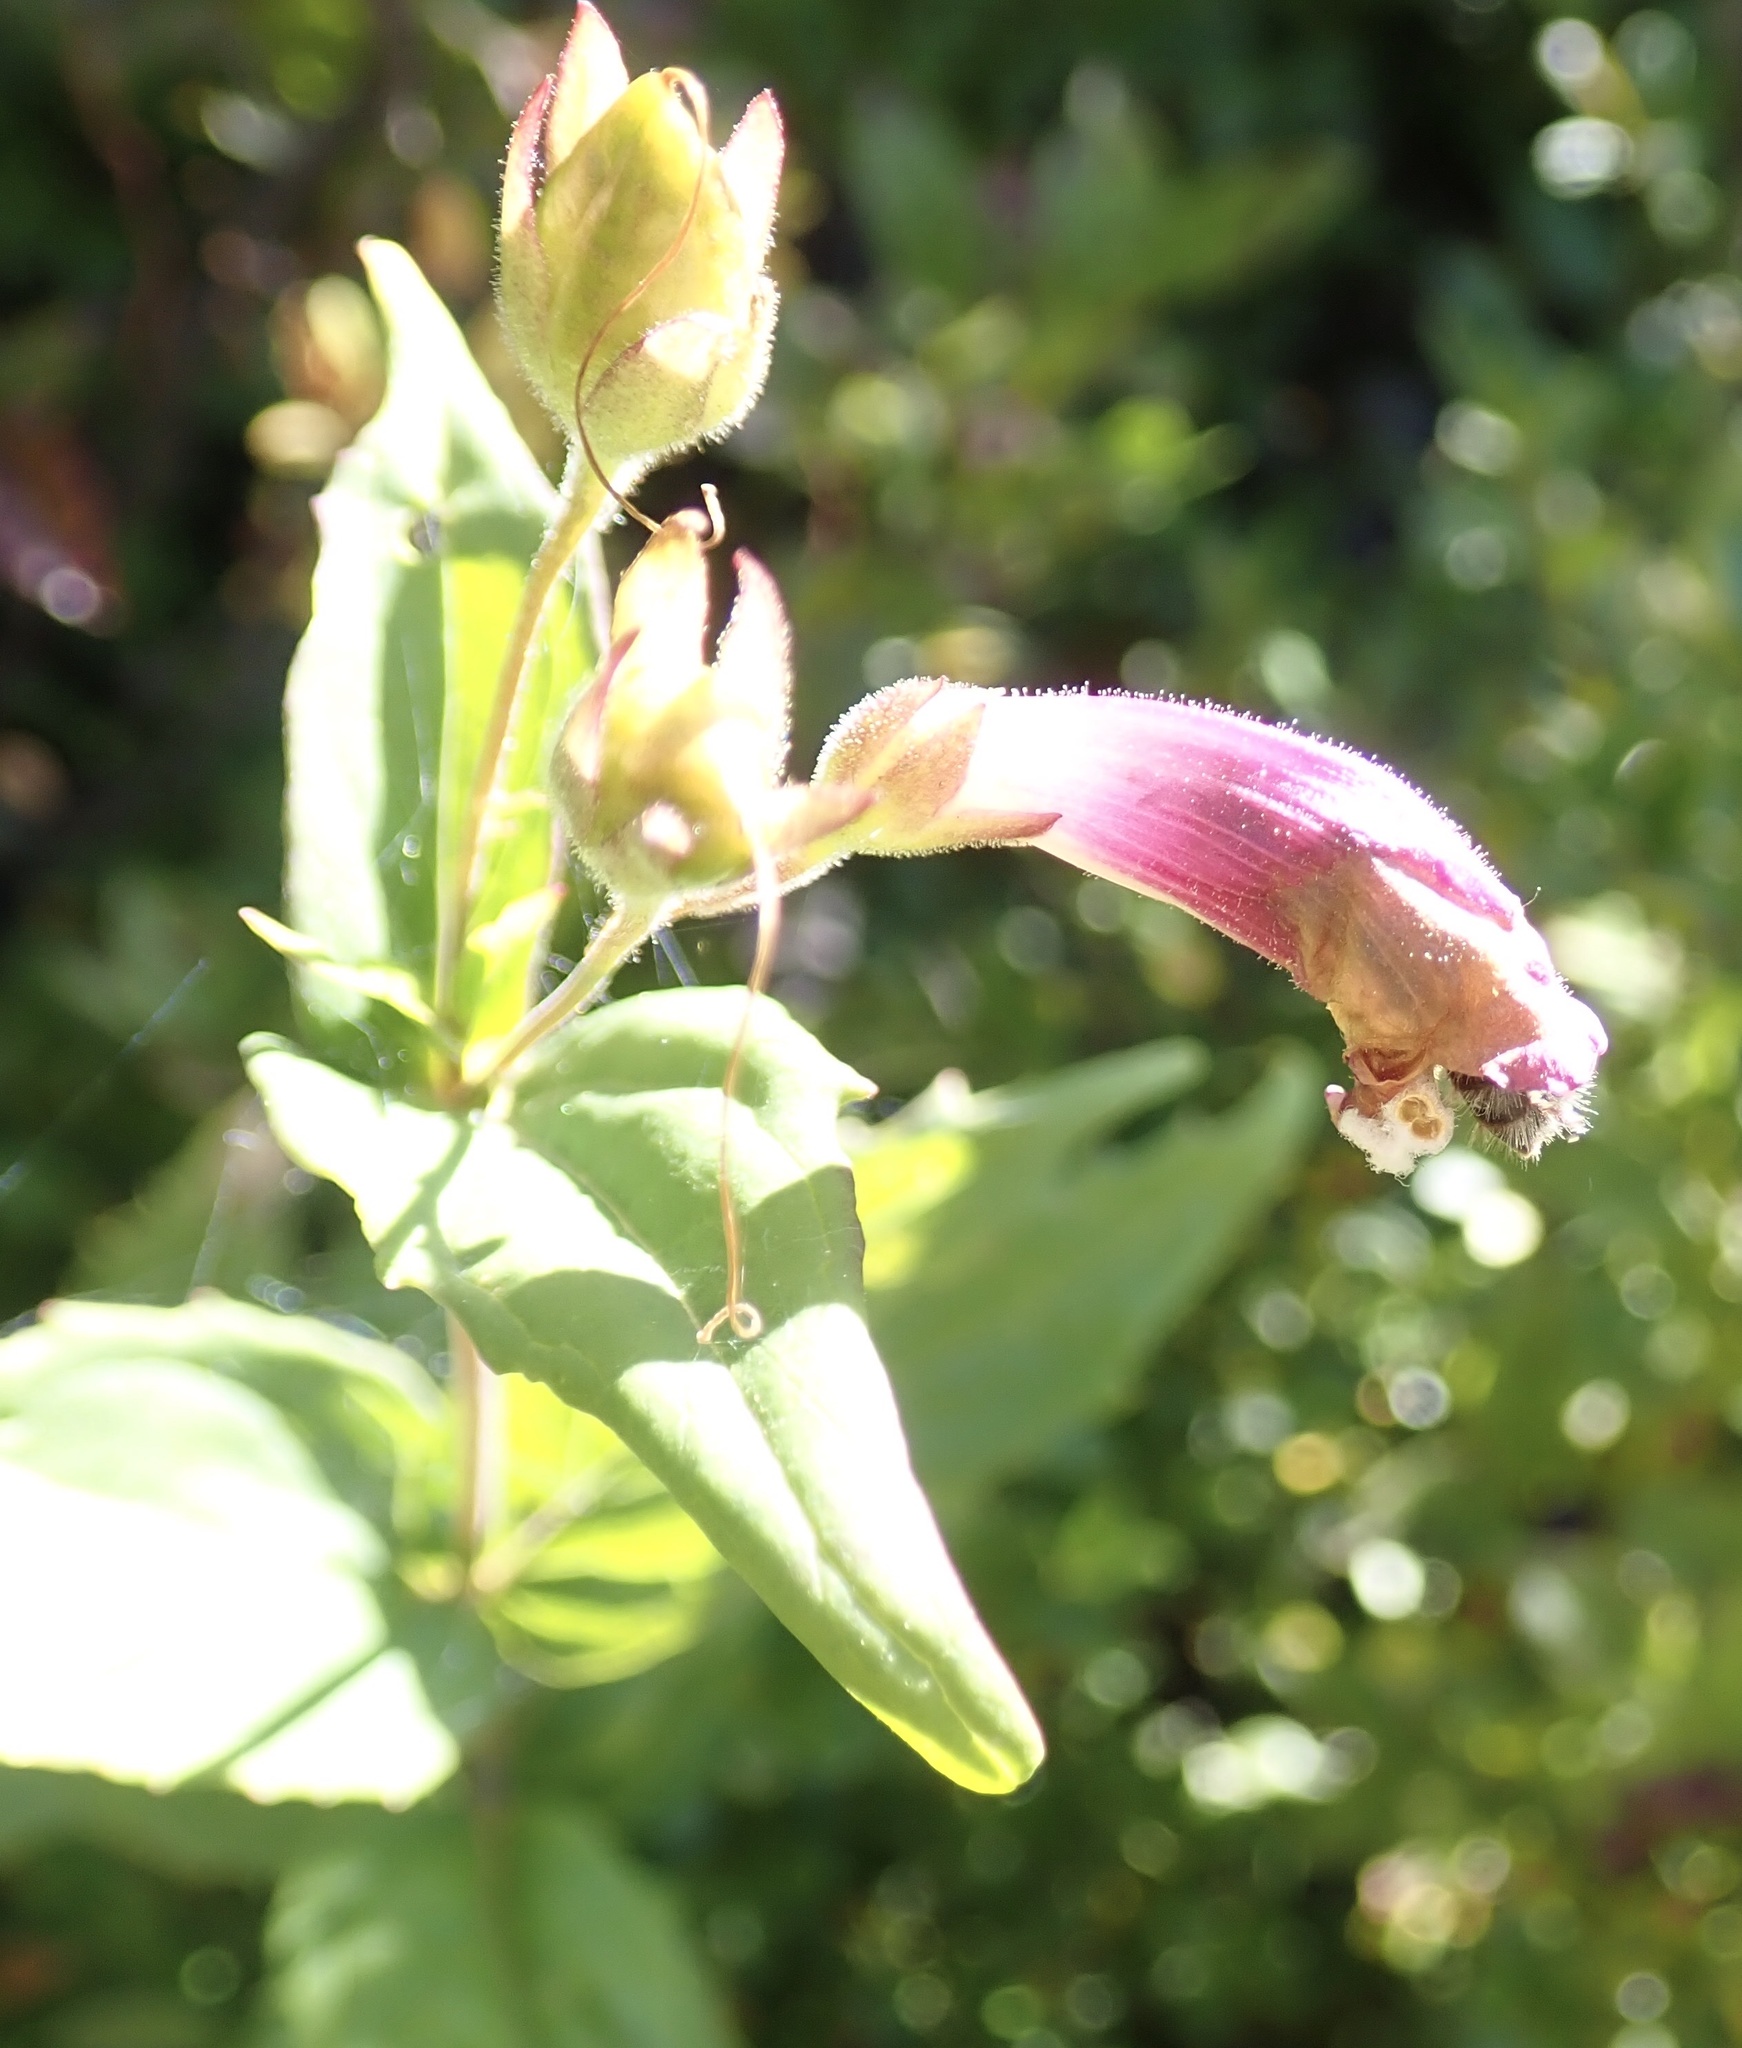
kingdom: Plantae
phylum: Tracheophyta
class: Magnoliopsida
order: Lamiales
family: Plantaginaceae
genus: Nothochelone
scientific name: Nothochelone nemorosa
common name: Woodland beardtongue
